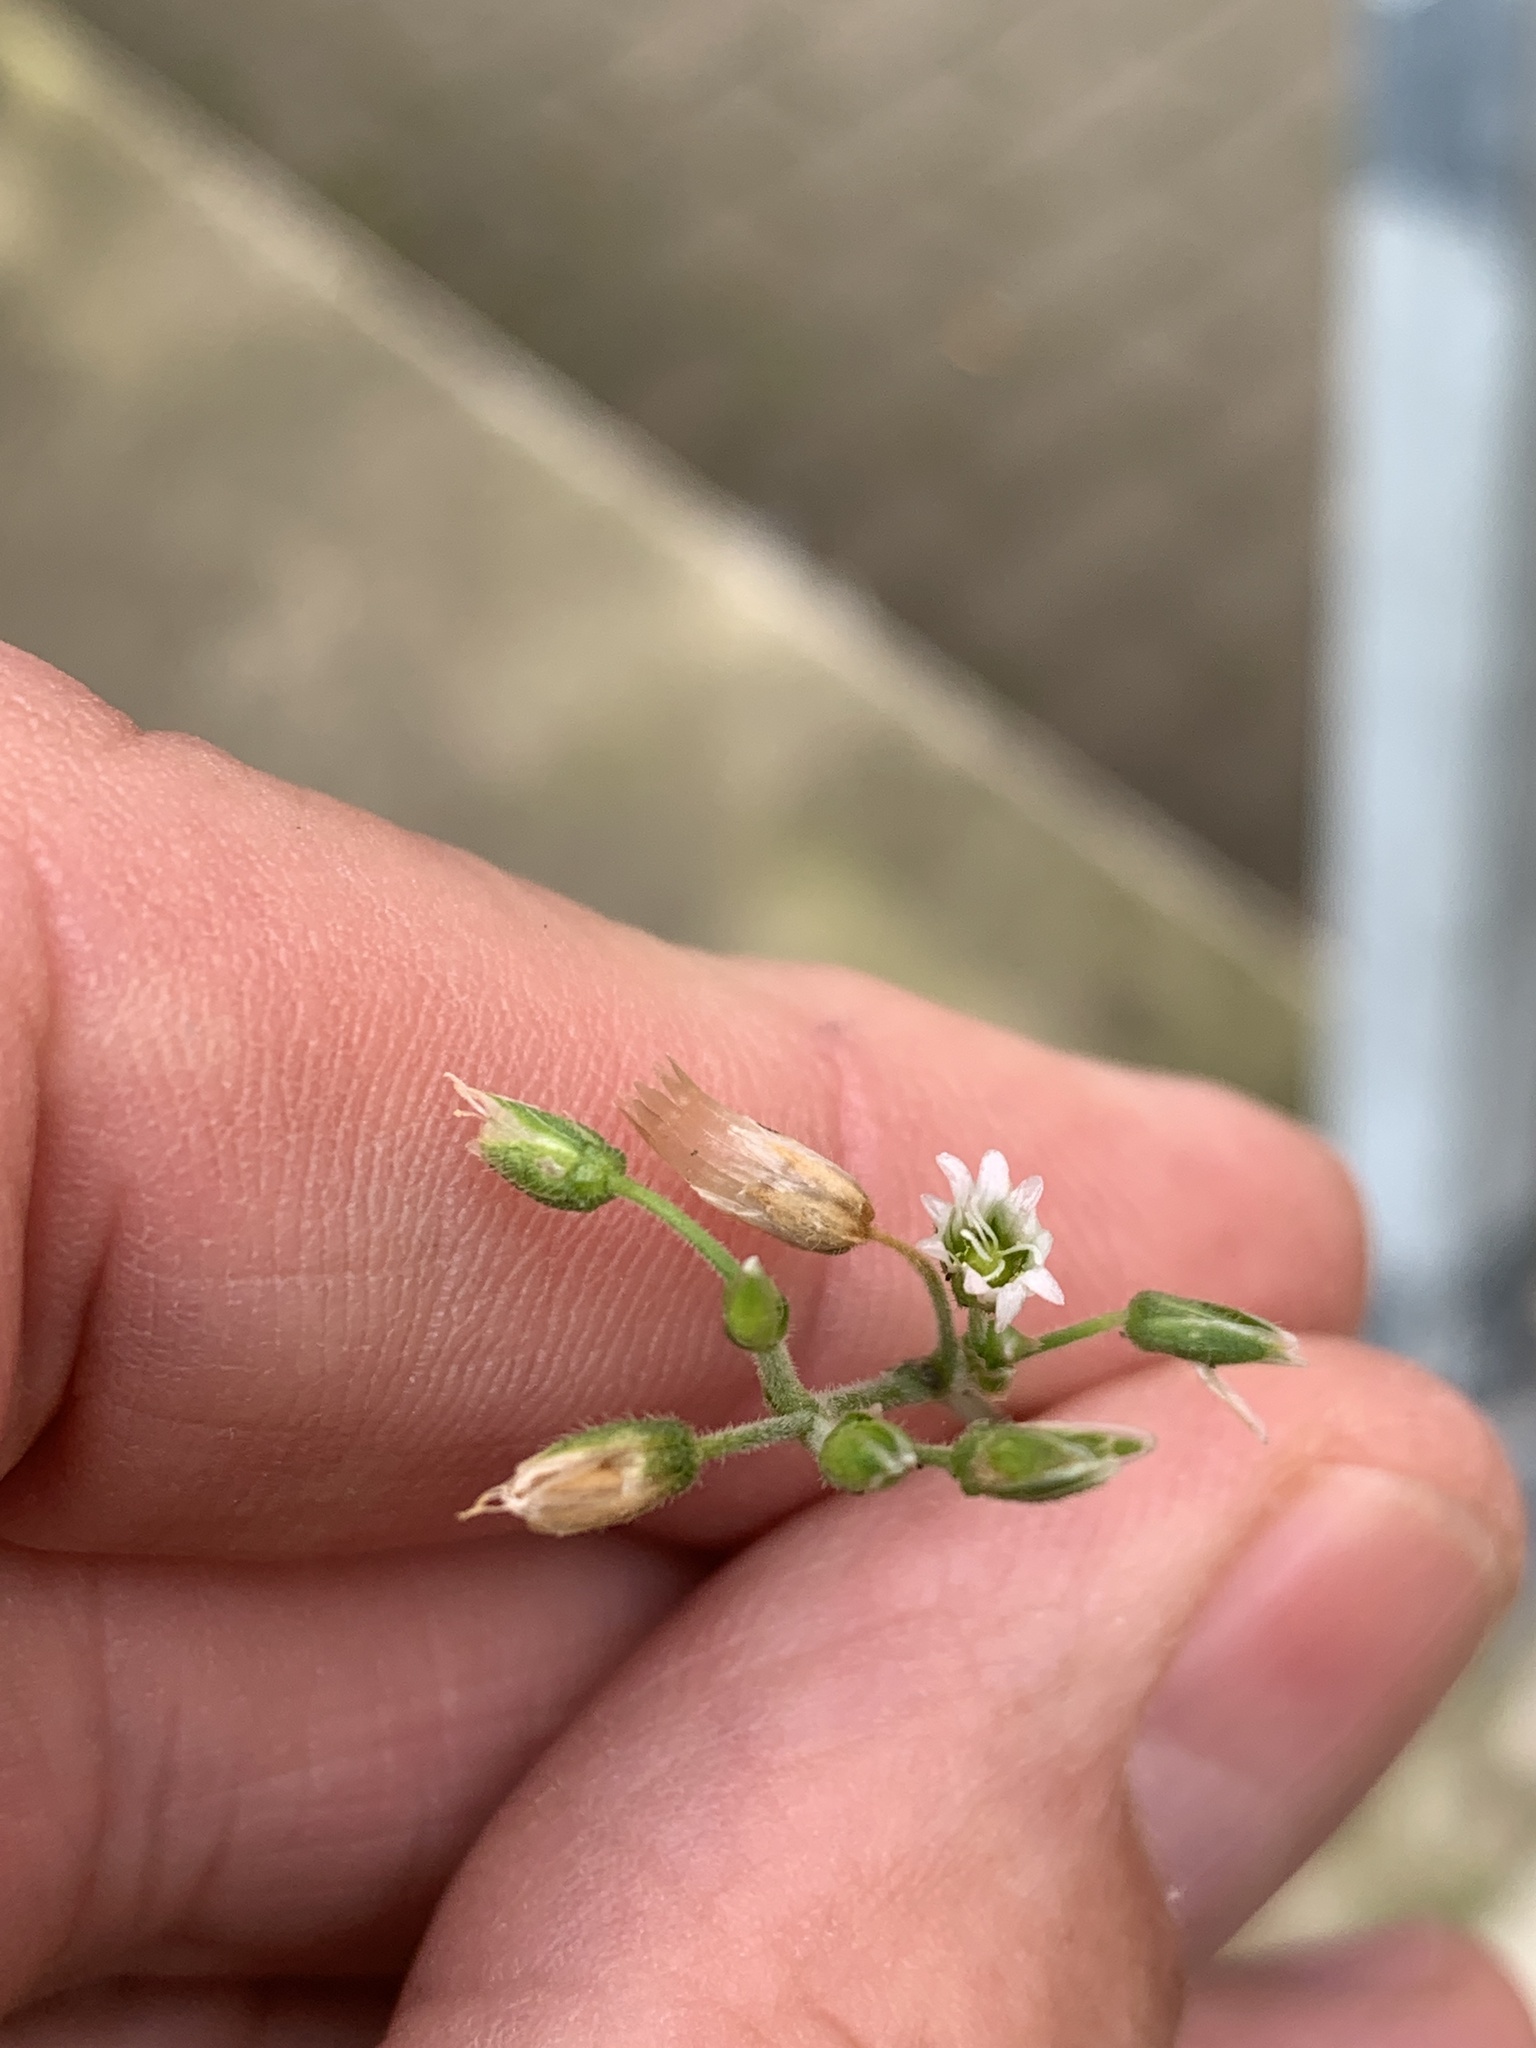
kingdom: Plantae
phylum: Tracheophyta
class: Magnoliopsida
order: Caryophyllales
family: Caryophyllaceae
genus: Cerastium
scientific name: Cerastium holosteoides
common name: Big chickweed
